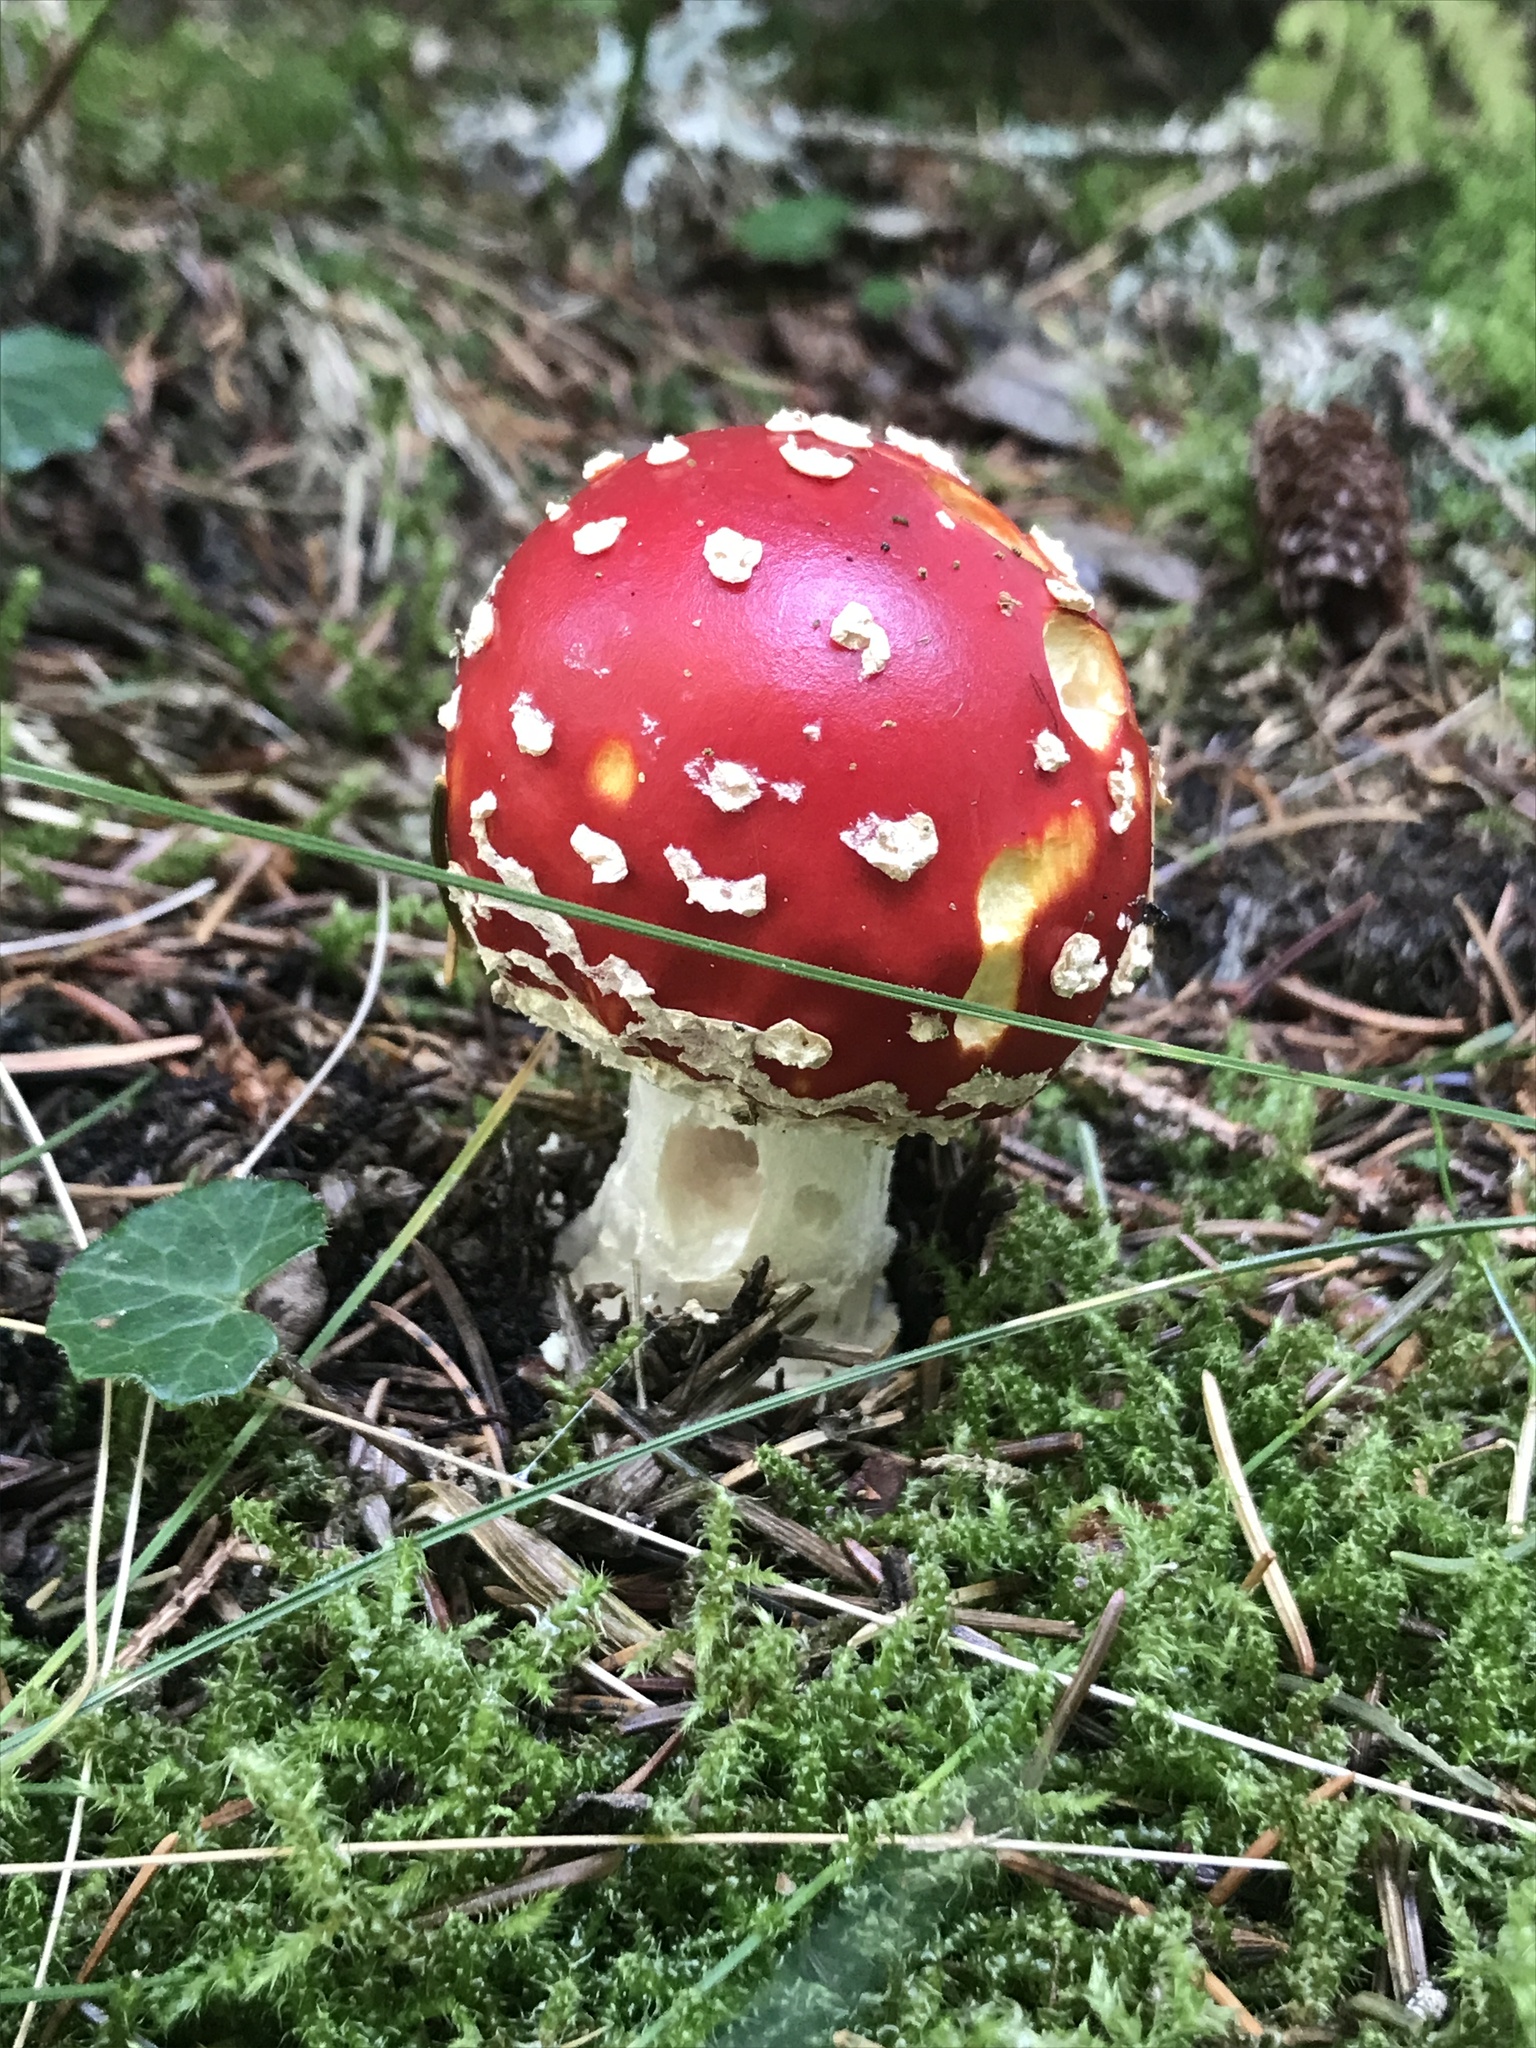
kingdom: Fungi
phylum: Basidiomycota
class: Agaricomycetes
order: Agaricales
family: Amanitaceae
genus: Amanita
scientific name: Amanita muscaria
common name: Fly agaric
